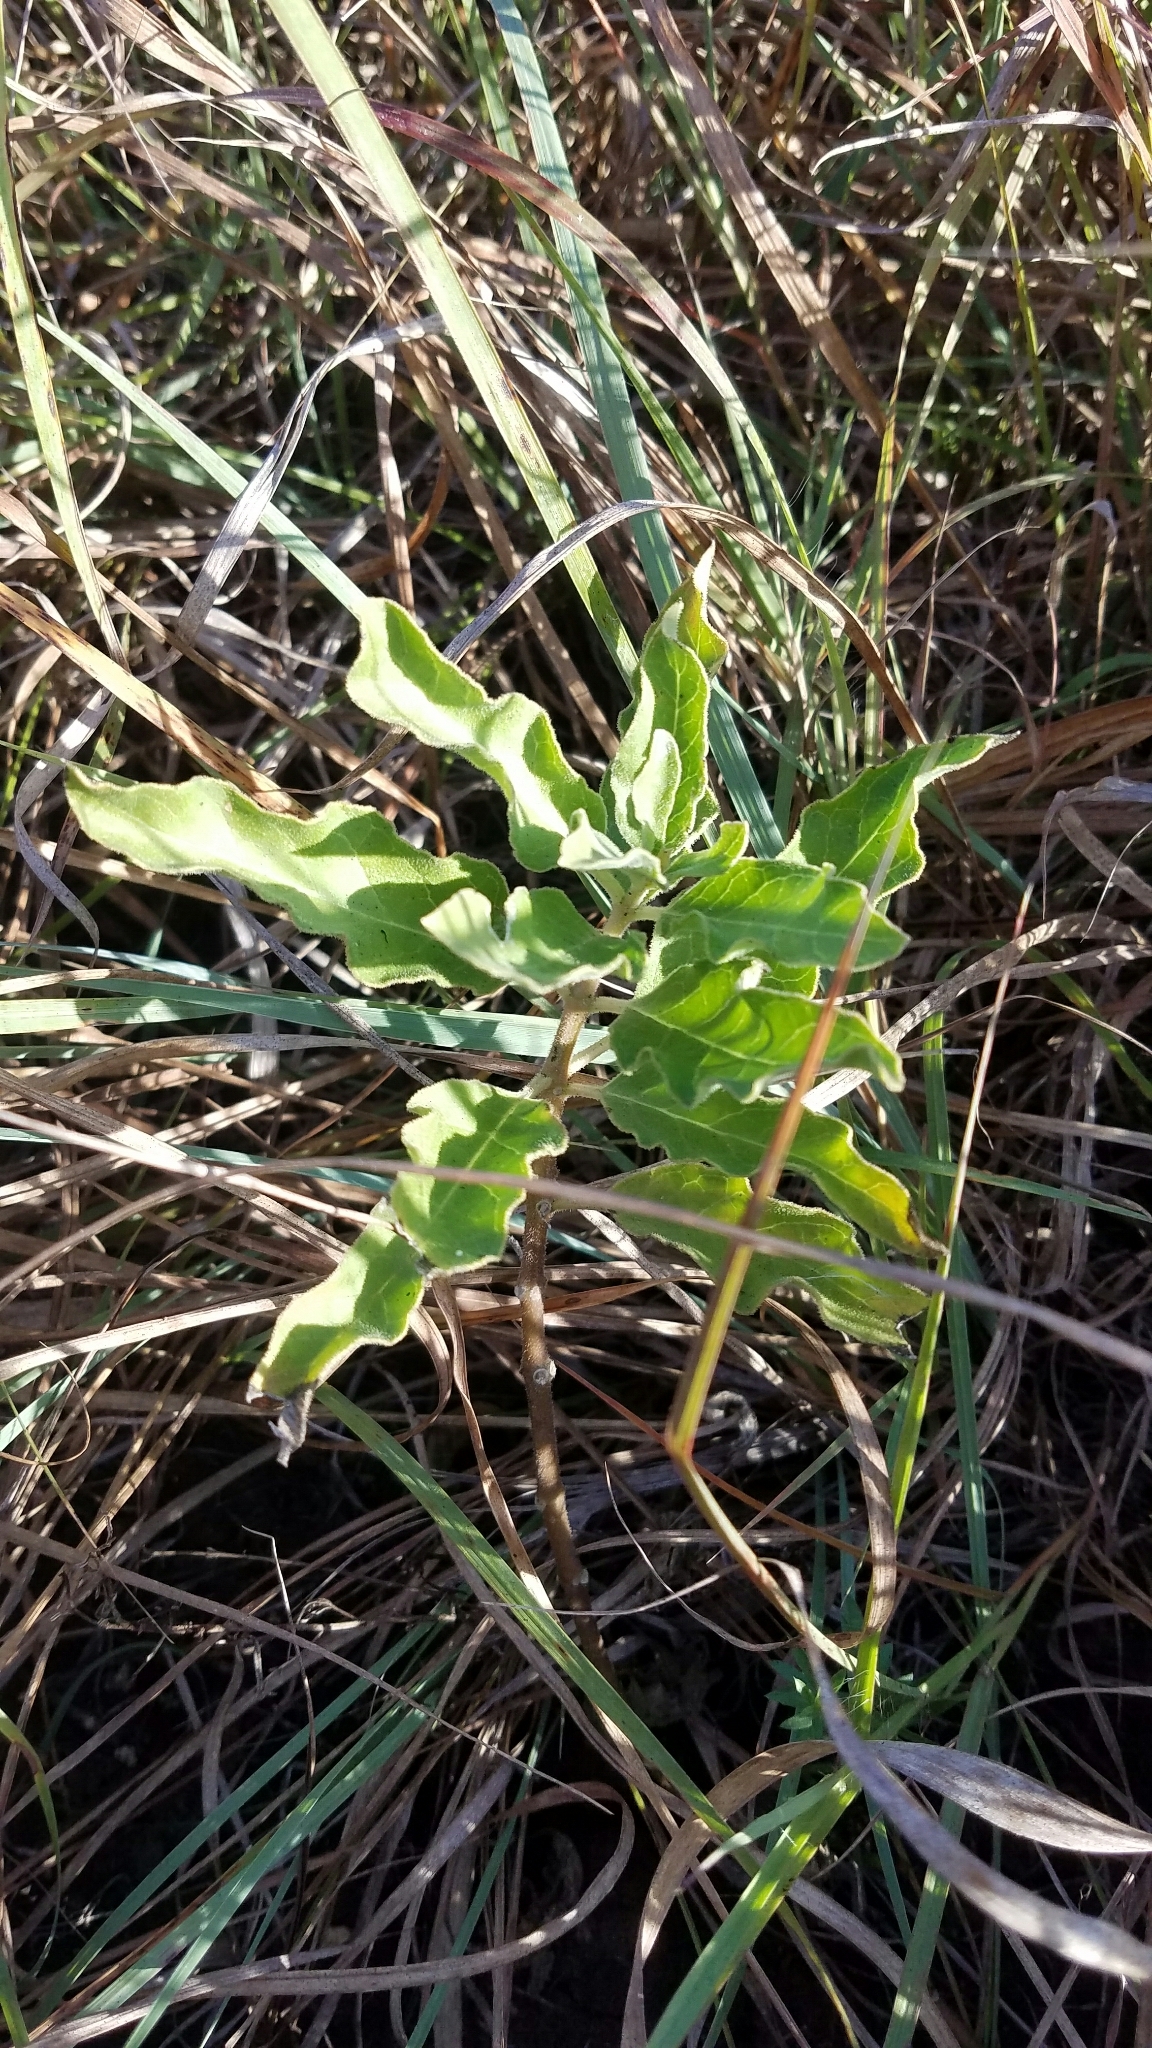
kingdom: Plantae
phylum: Tracheophyta
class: Magnoliopsida
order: Gentianales
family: Apocynaceae
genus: Asclepias
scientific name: Asclepias oenotheroides
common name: Zizotes milkweed
